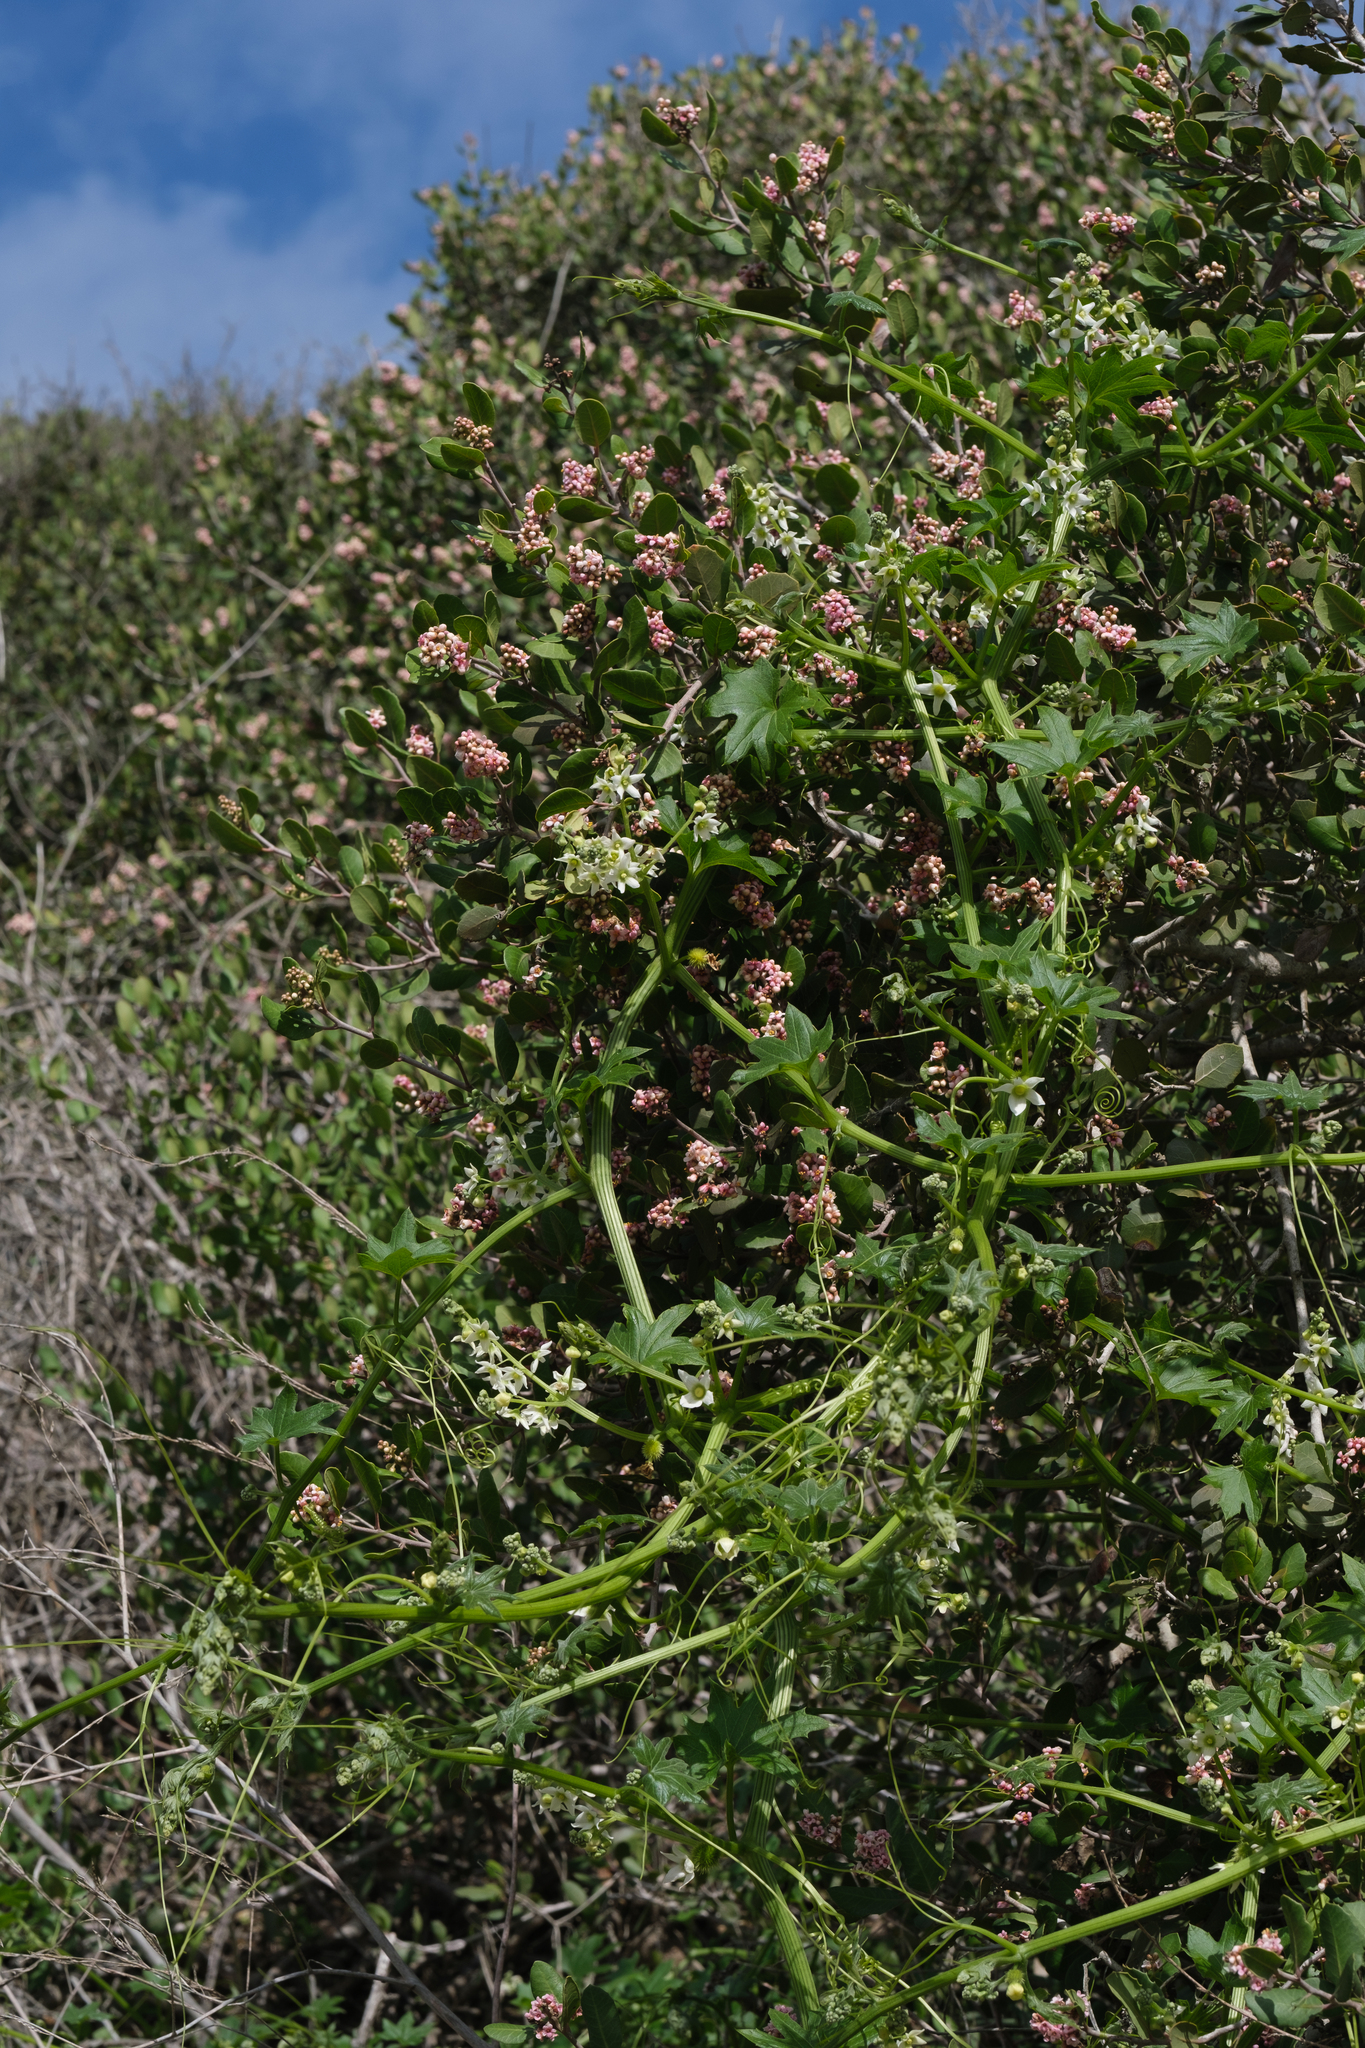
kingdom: Plantae
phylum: Tracheophyta
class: Magnoliopsida
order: Cucurbitales
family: Cucurbitaceae
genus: Marah
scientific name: Marah macrocarpa
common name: Cucamonga manroot
